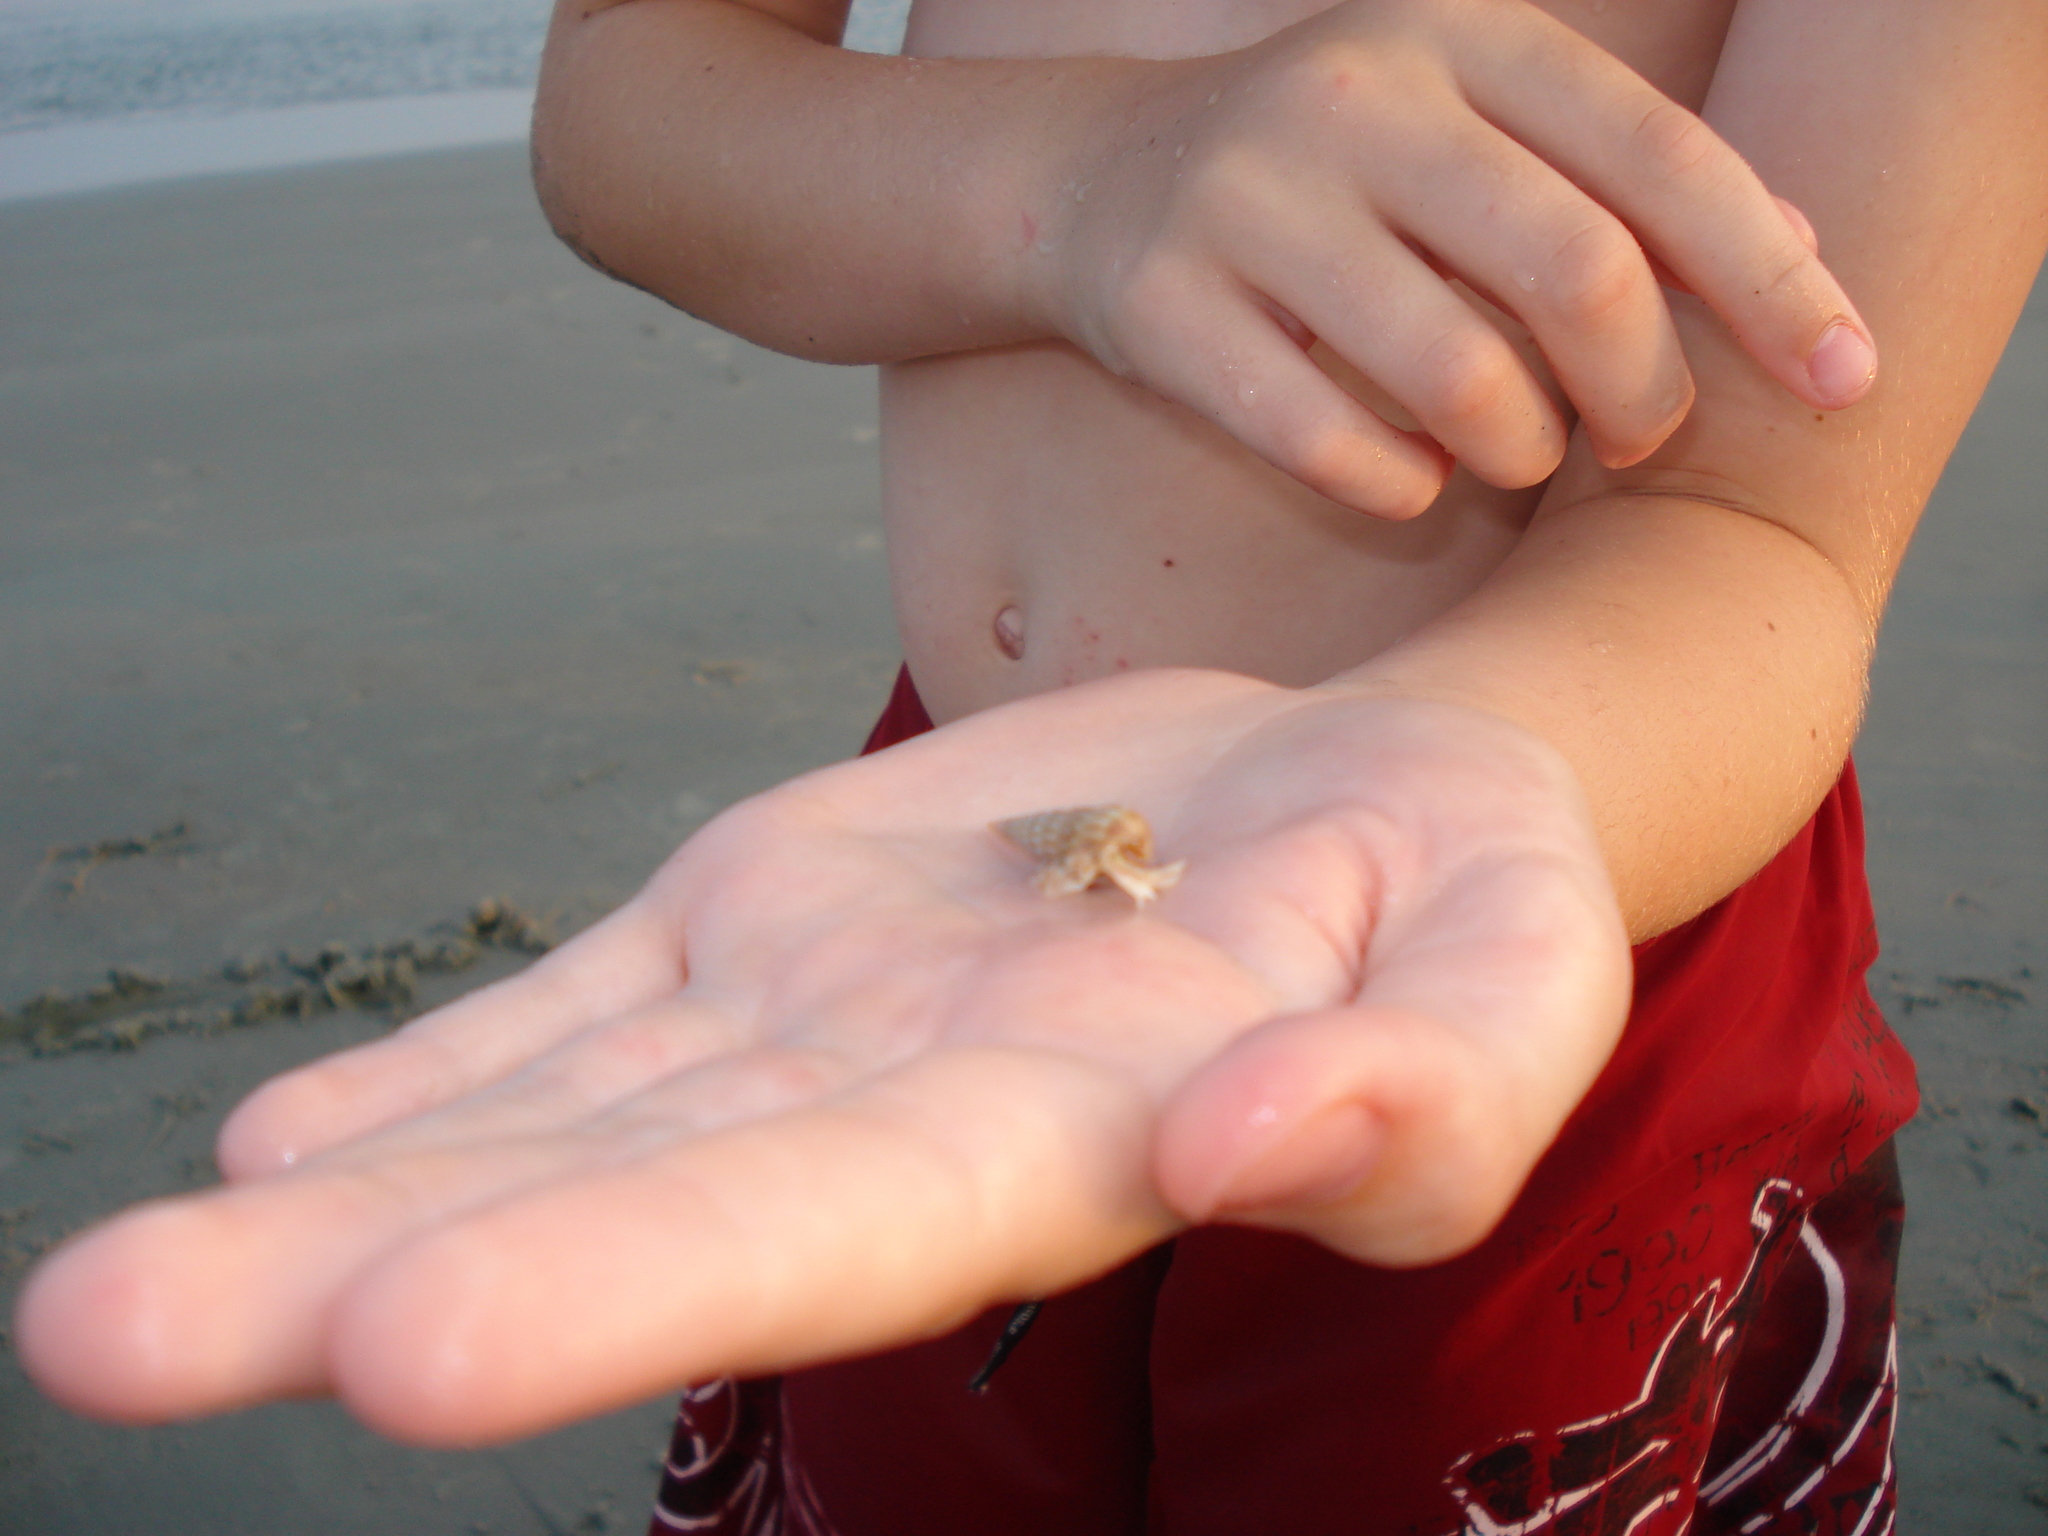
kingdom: Animalia
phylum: Arthropoda
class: Malacostraca
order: Decapoda
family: Paguridae
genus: Pagurus
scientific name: Pagurus pollicaris
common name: Flatclaw hermit
